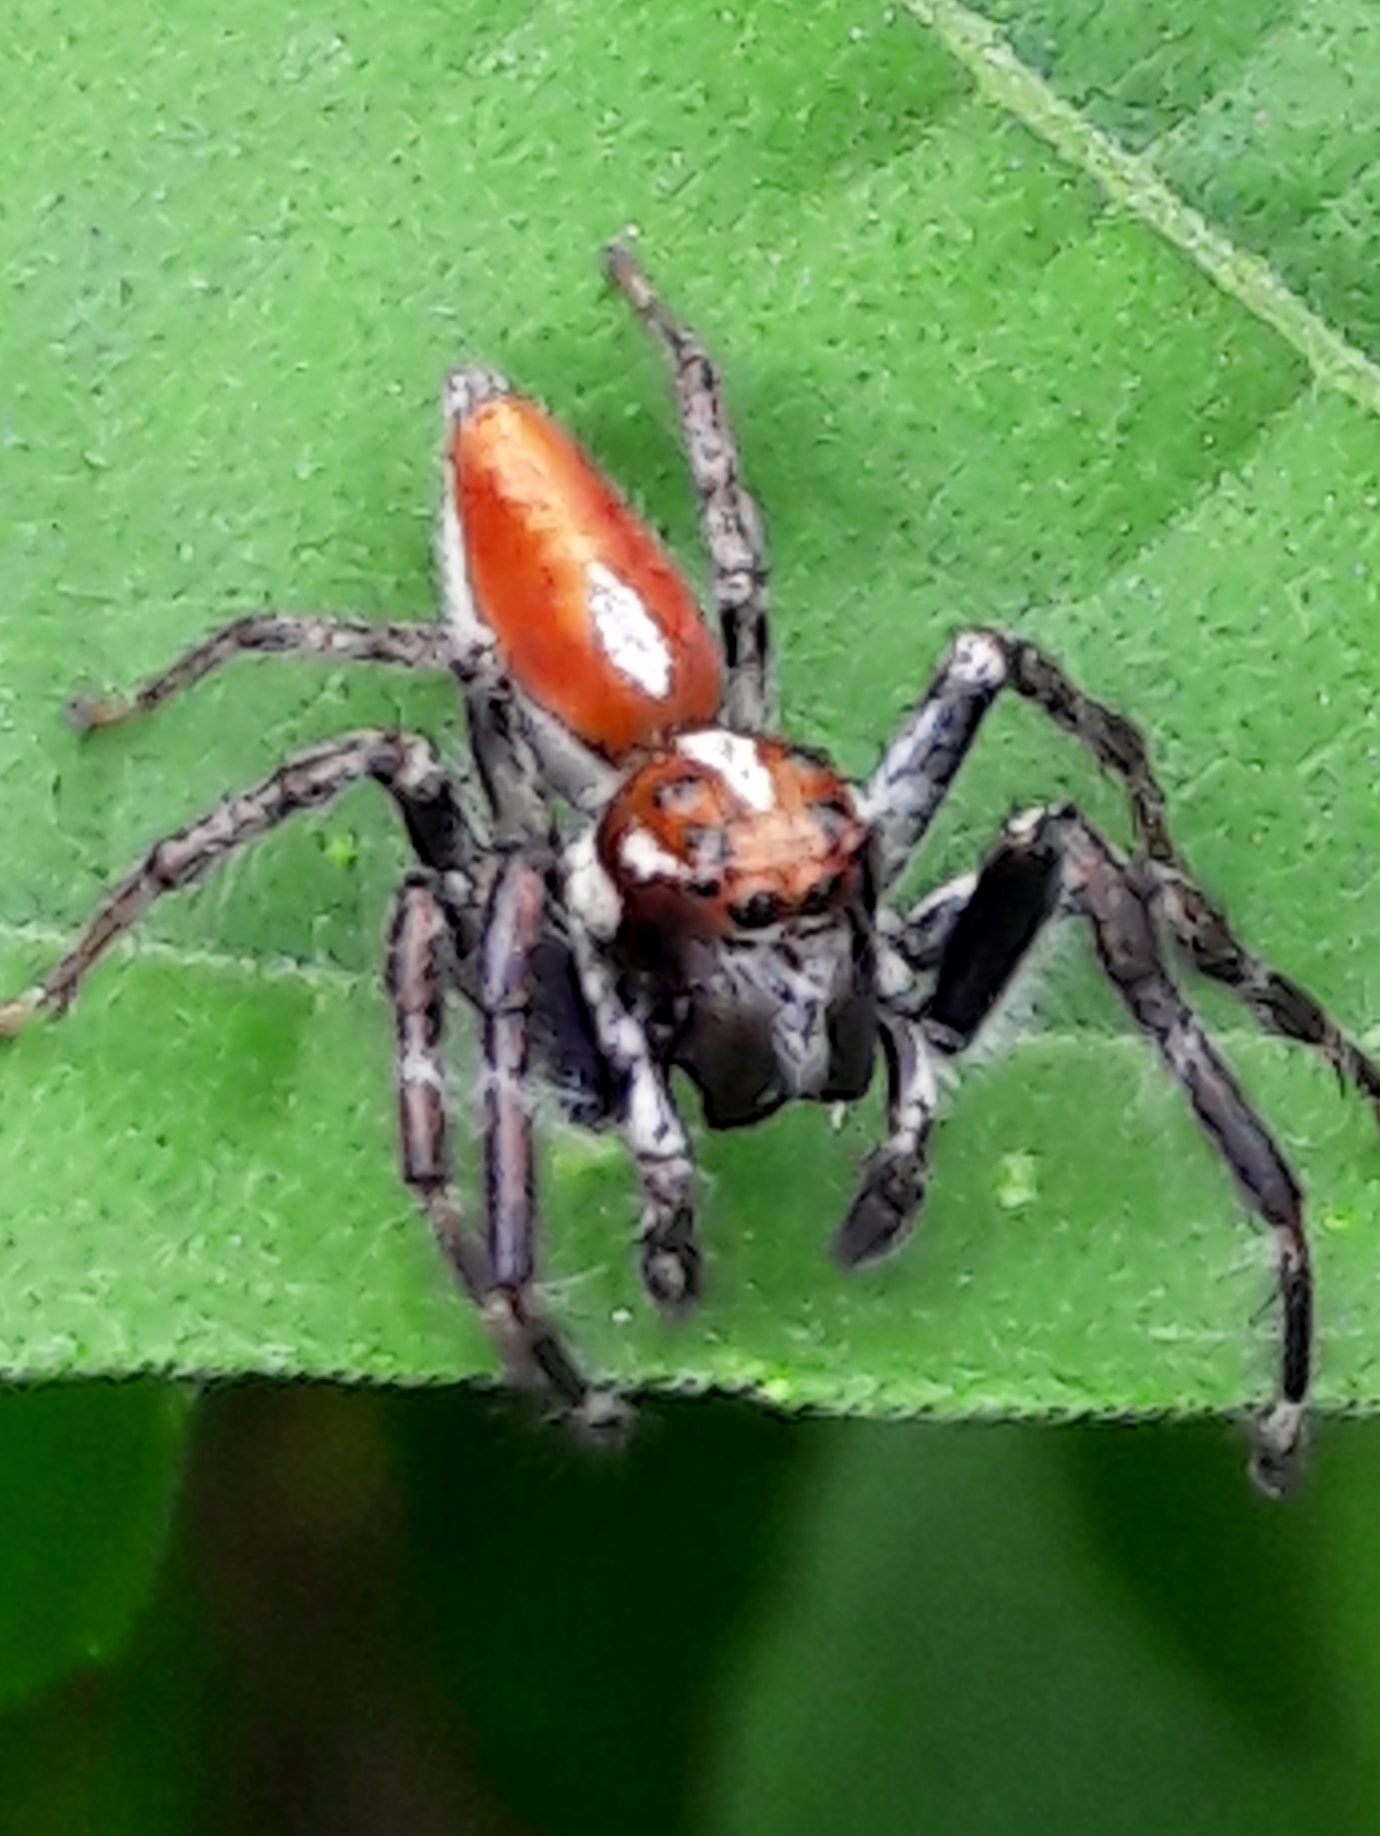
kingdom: Animalia
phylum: Arthropoda
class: Arachnida
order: Araneae
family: Salticidae
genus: Frigga
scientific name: Frigga
